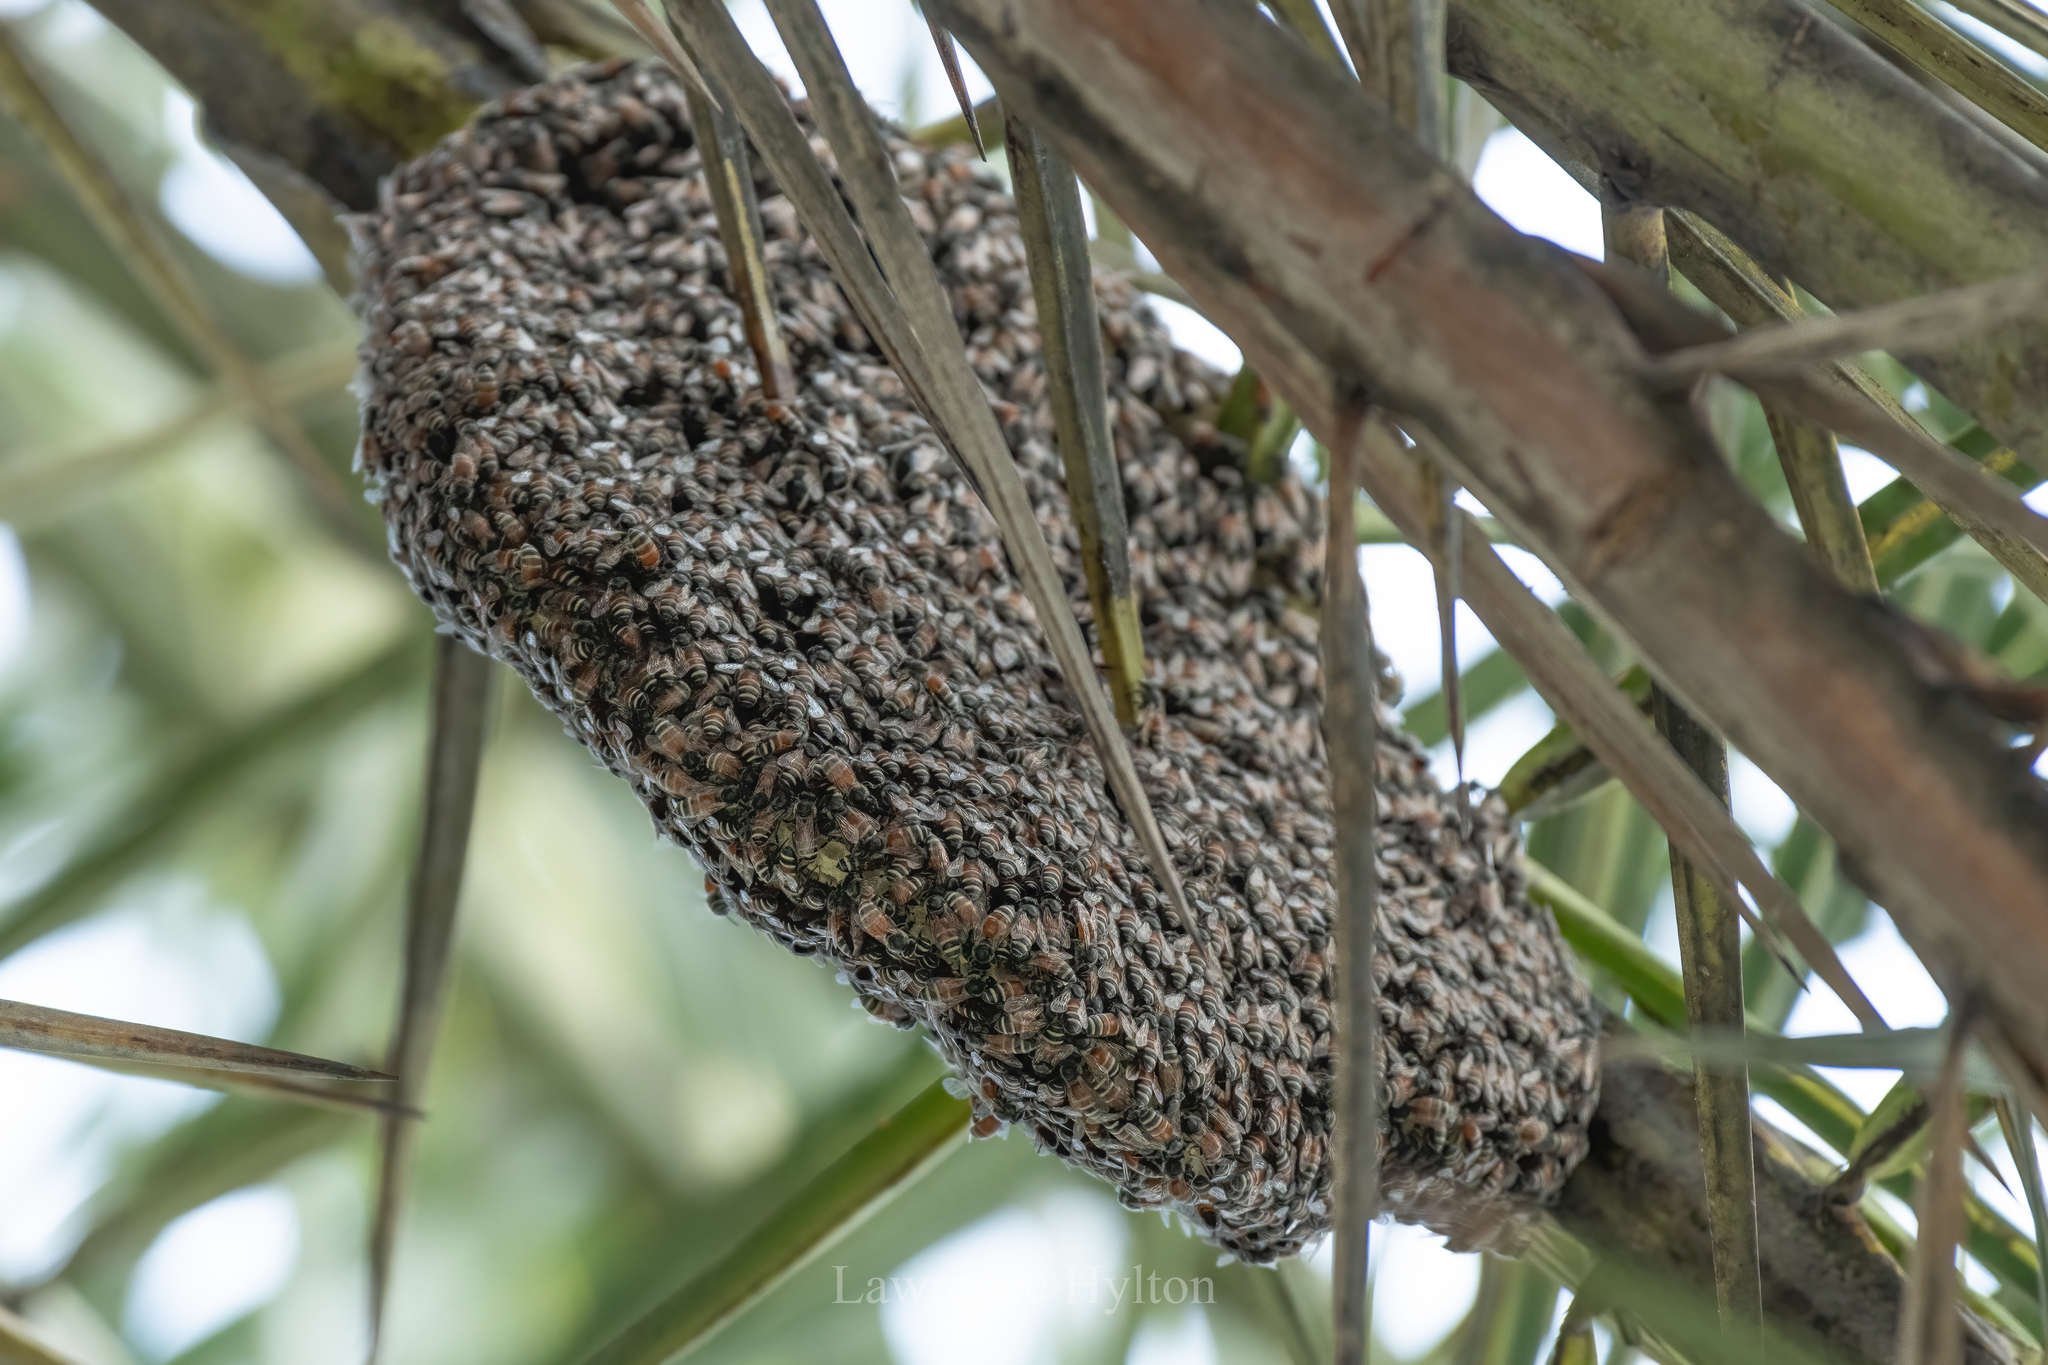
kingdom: Animalia
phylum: Arthropoda
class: Insecta
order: Hymenoptera
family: Apidae
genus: Apis
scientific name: Apis florea
